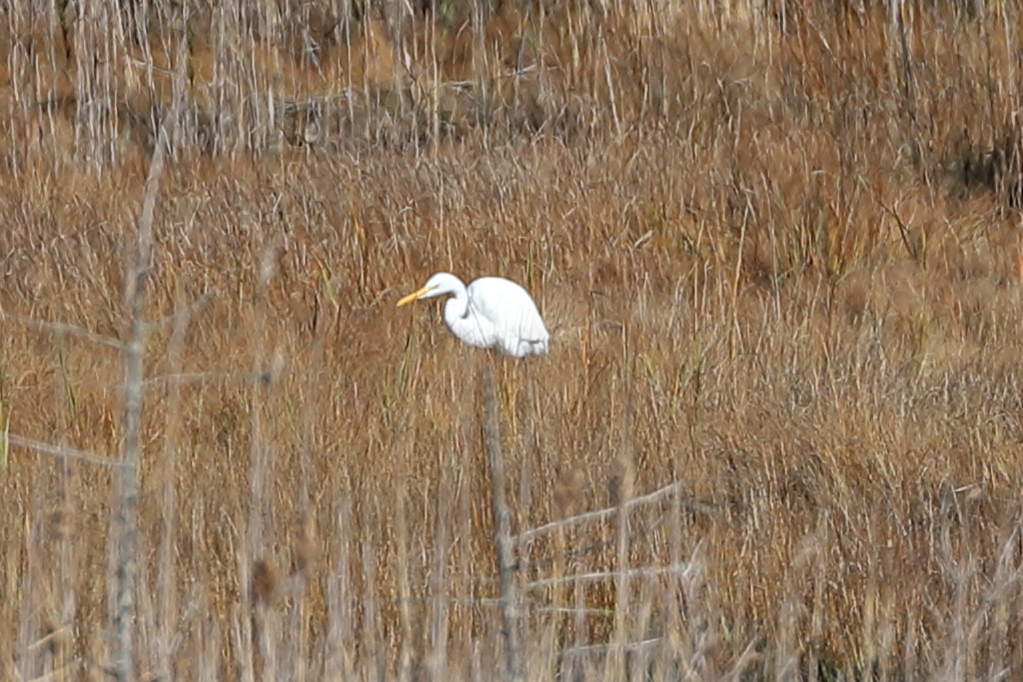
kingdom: Animalia
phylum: Chordata
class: Aves
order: Pelecaniformes
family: Ardeidae
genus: Ardea
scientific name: Ardea alba
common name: Great egret
